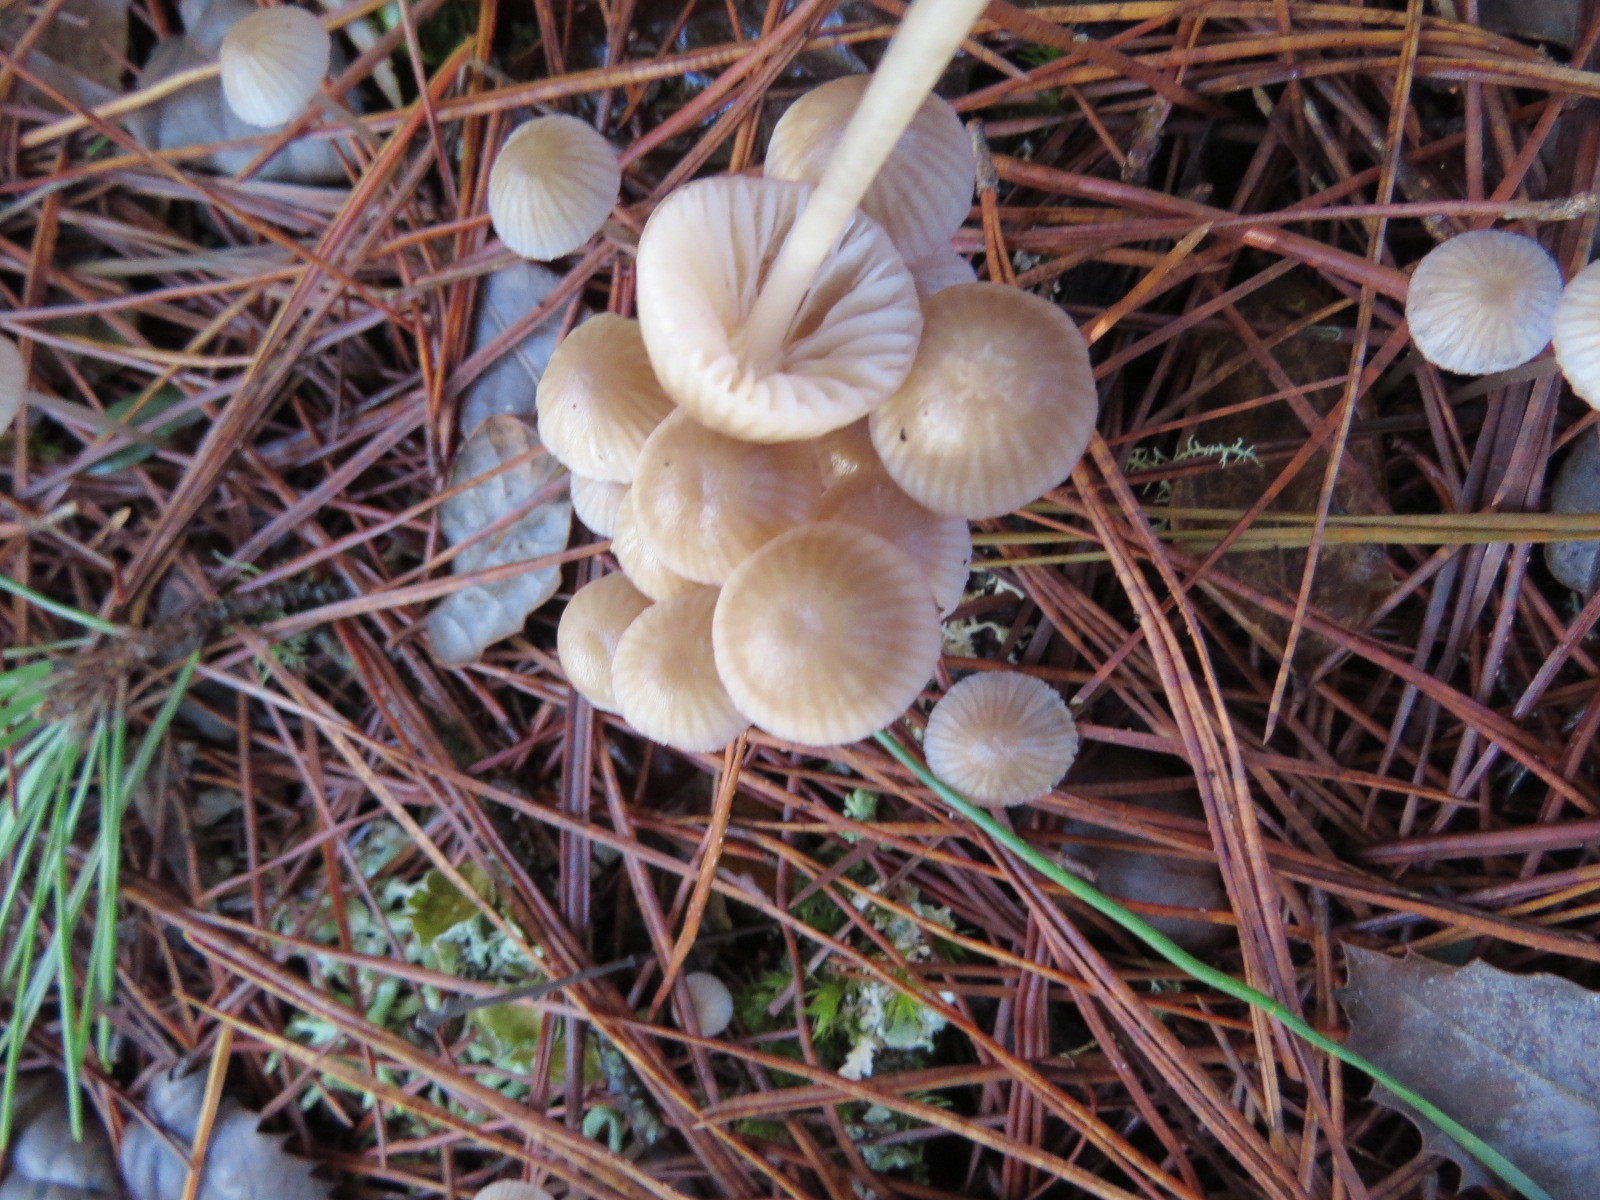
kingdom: Fungi
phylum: Basidiomycota
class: Agaricomycetes
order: Agaricales
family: Mycenaceae
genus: Mycena
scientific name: Mycena capillaripes
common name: Pinkedge bonnet
